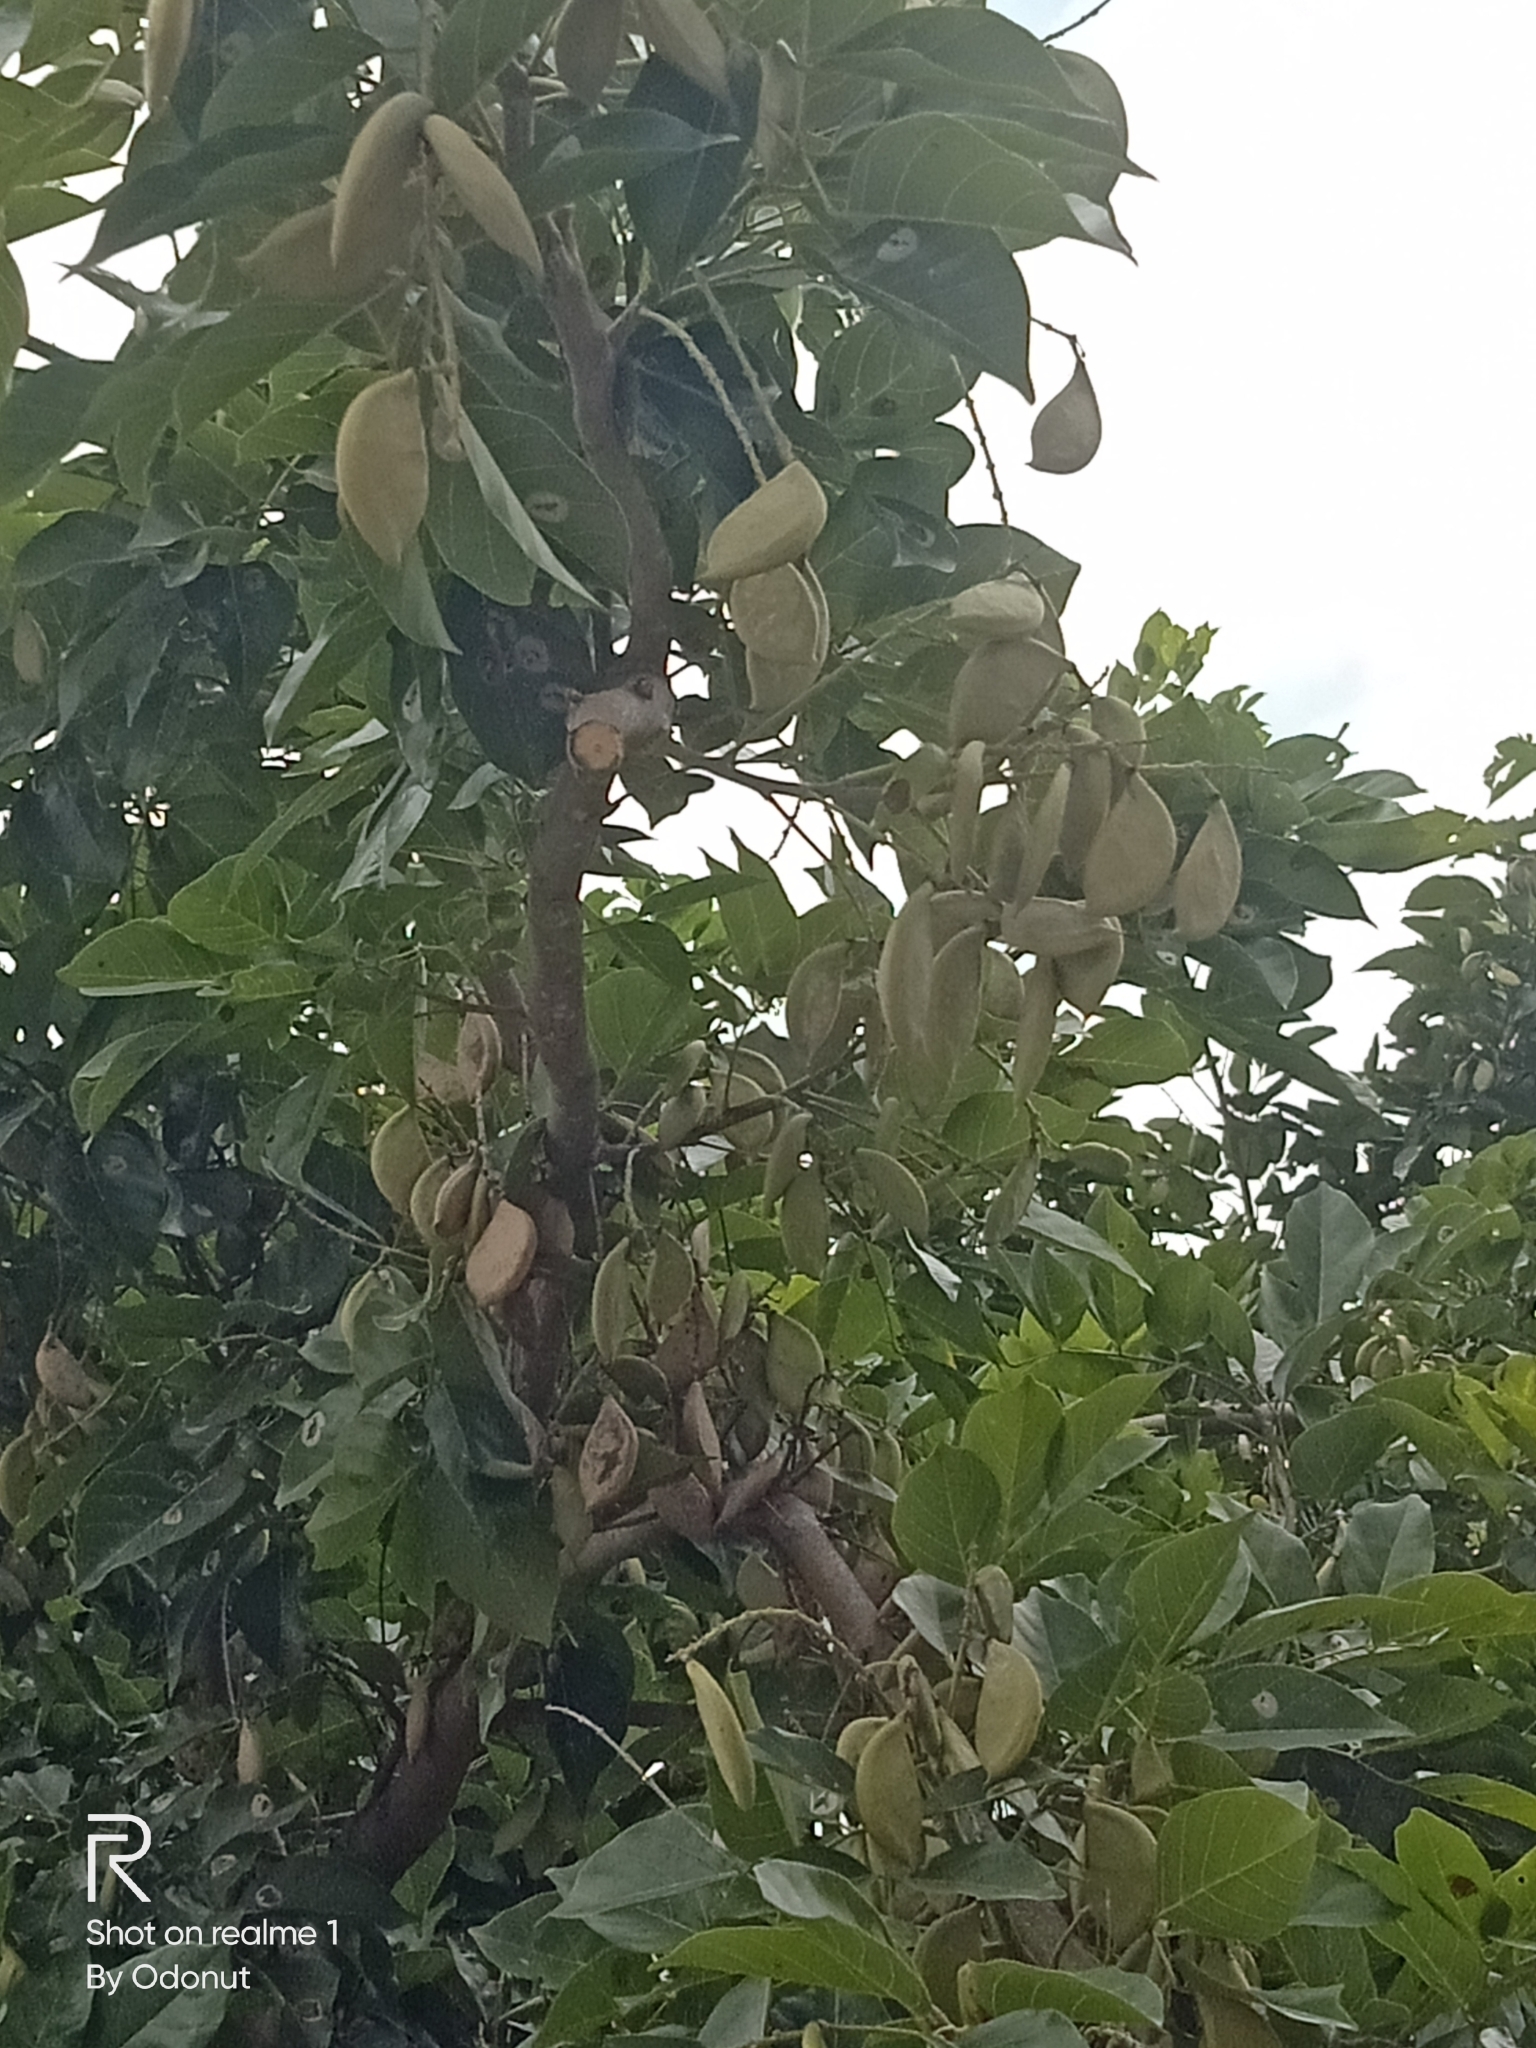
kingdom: Plantae
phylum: Tracheophyta
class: Magnoliopsida
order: Fabales
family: Fabaceae
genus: Pongamia
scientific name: Pongamia pinnata
